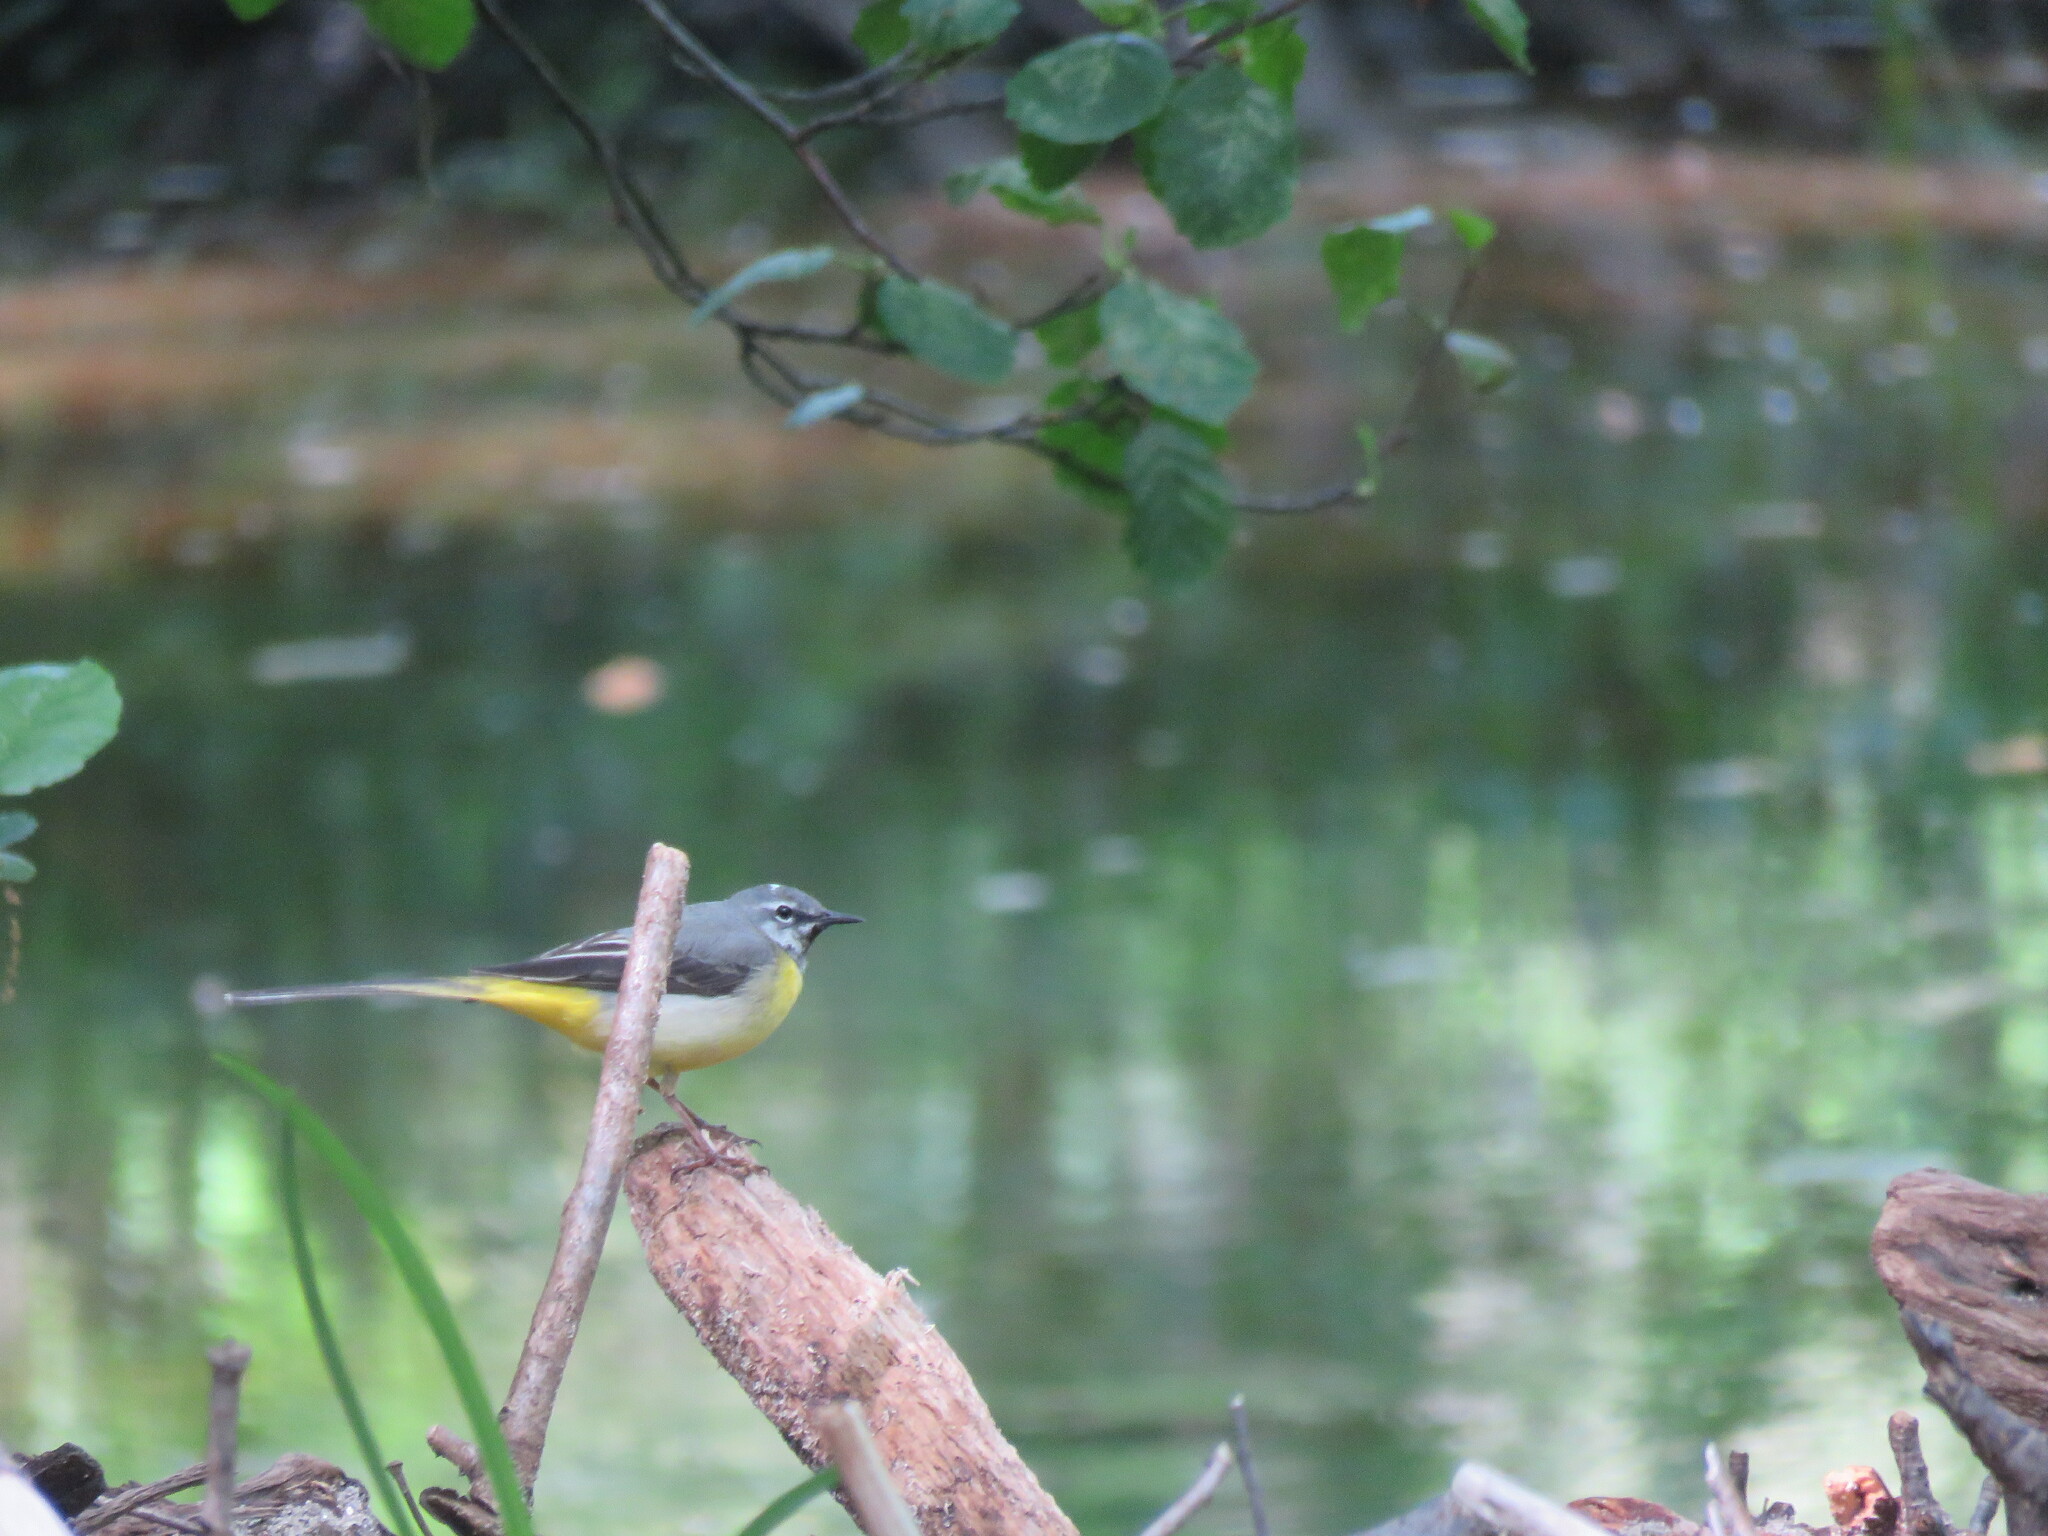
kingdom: Animalia
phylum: Chordata
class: Aves
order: Passeriformes
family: Motacillidae
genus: Motacilla
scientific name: Motacilla cinerea
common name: Grey wagtail
